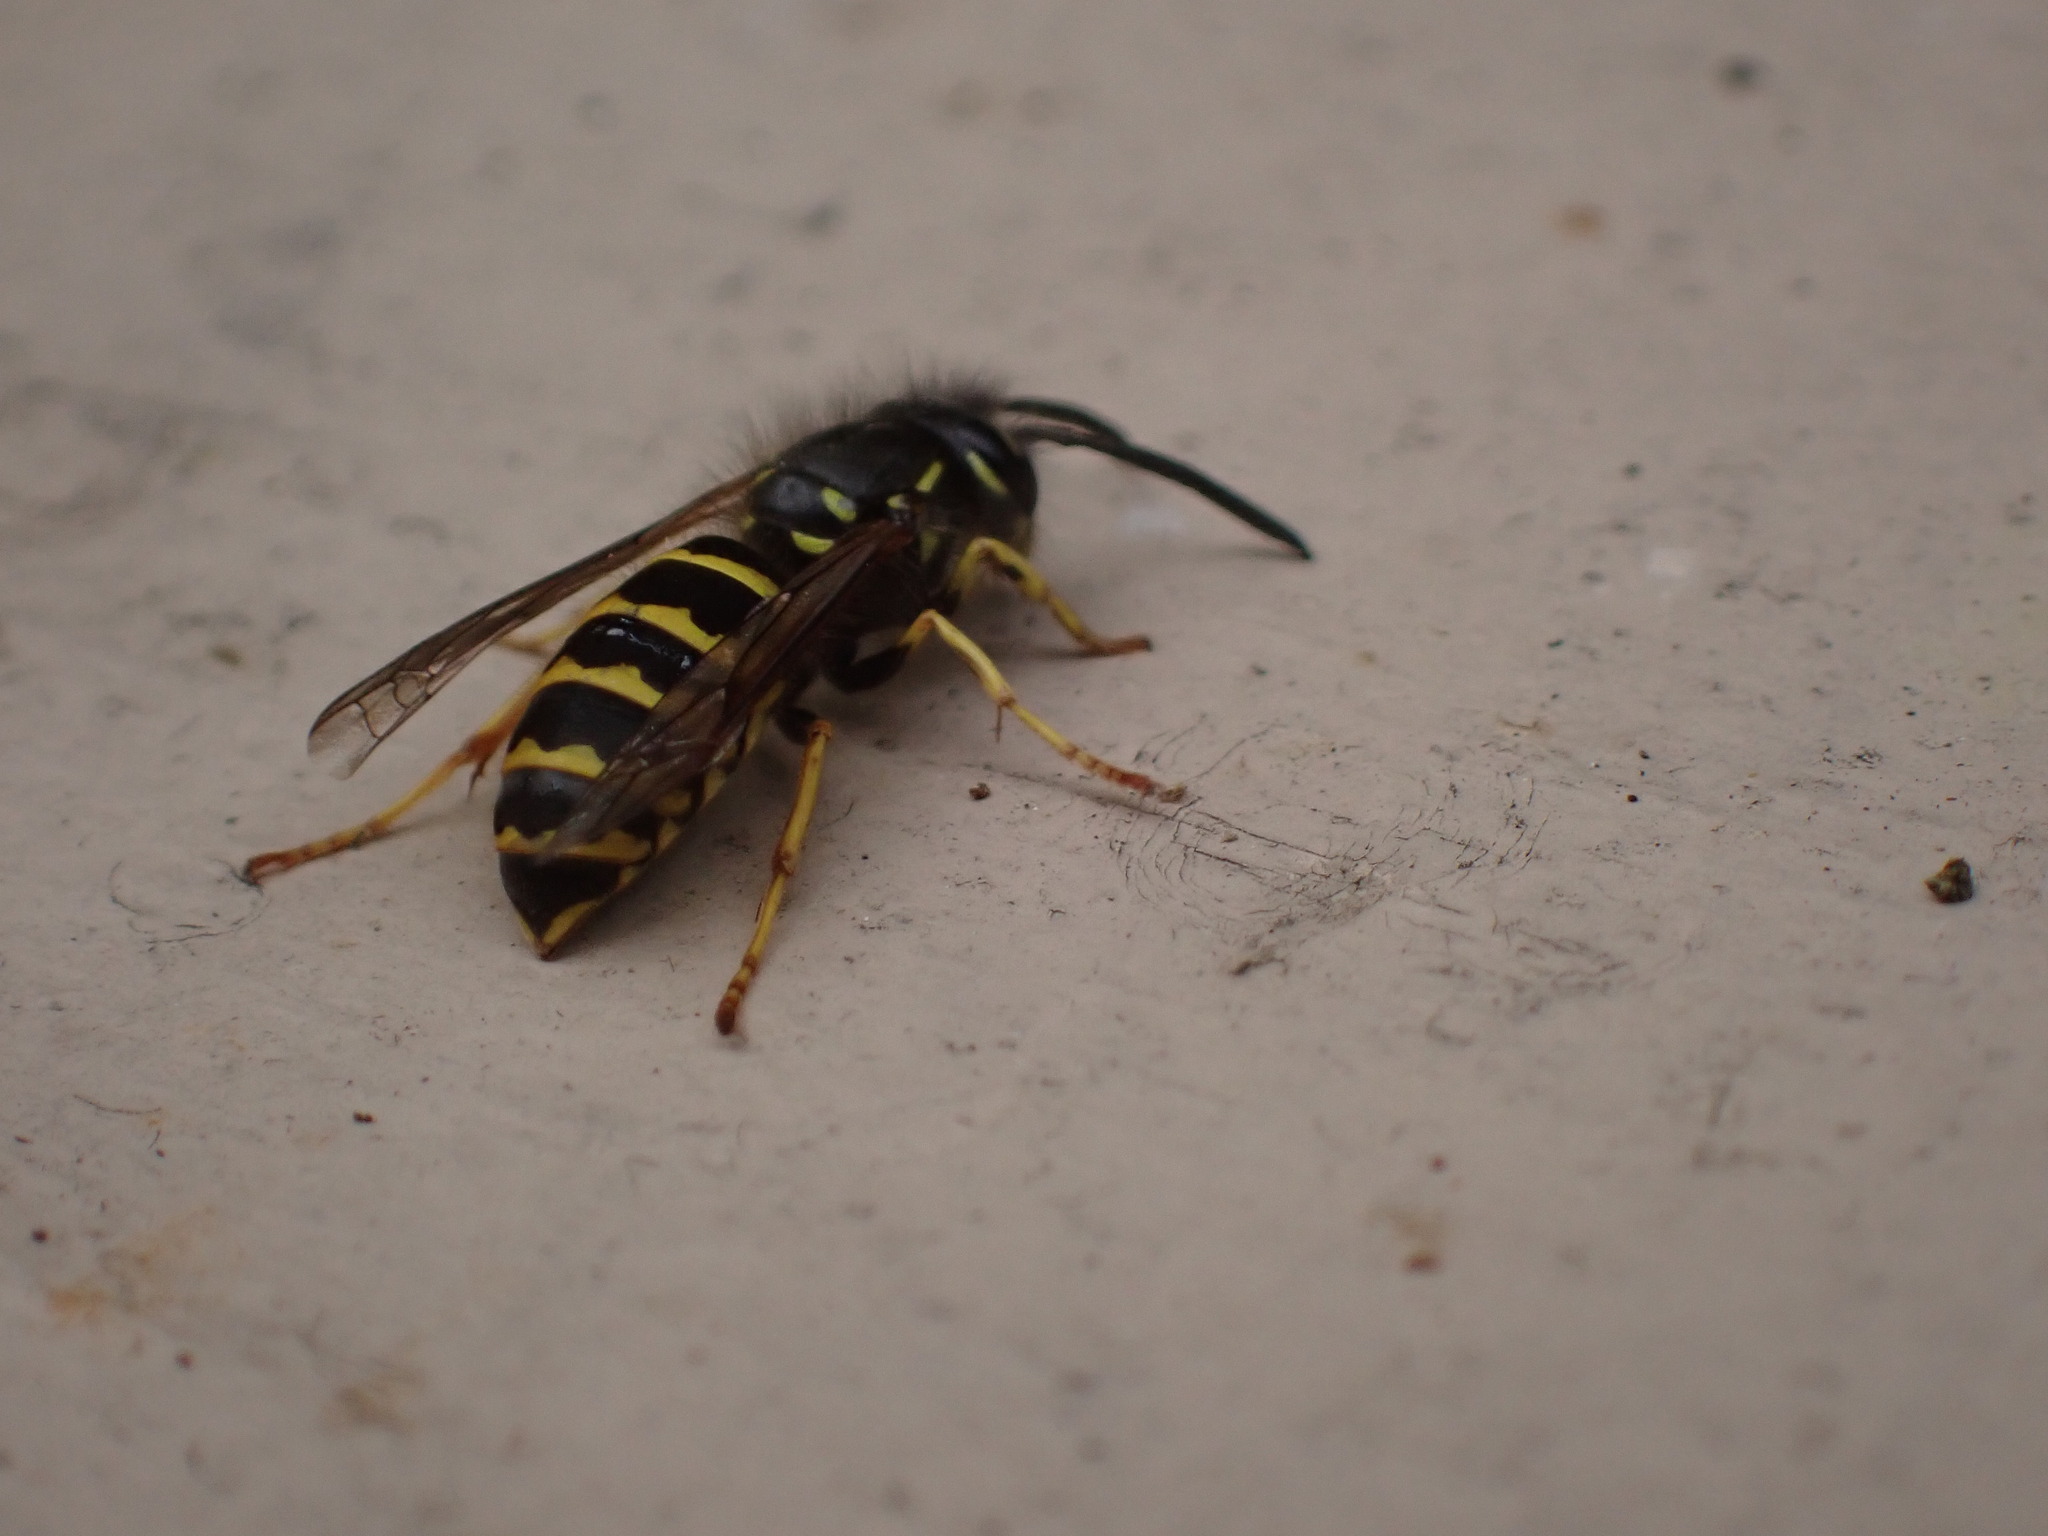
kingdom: Animalia
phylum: Arthropoda
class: Insecta
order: Hymenoptera
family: Vespidae
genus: Vespula
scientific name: Vespula alascensis
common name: Alaska yellowjacket
